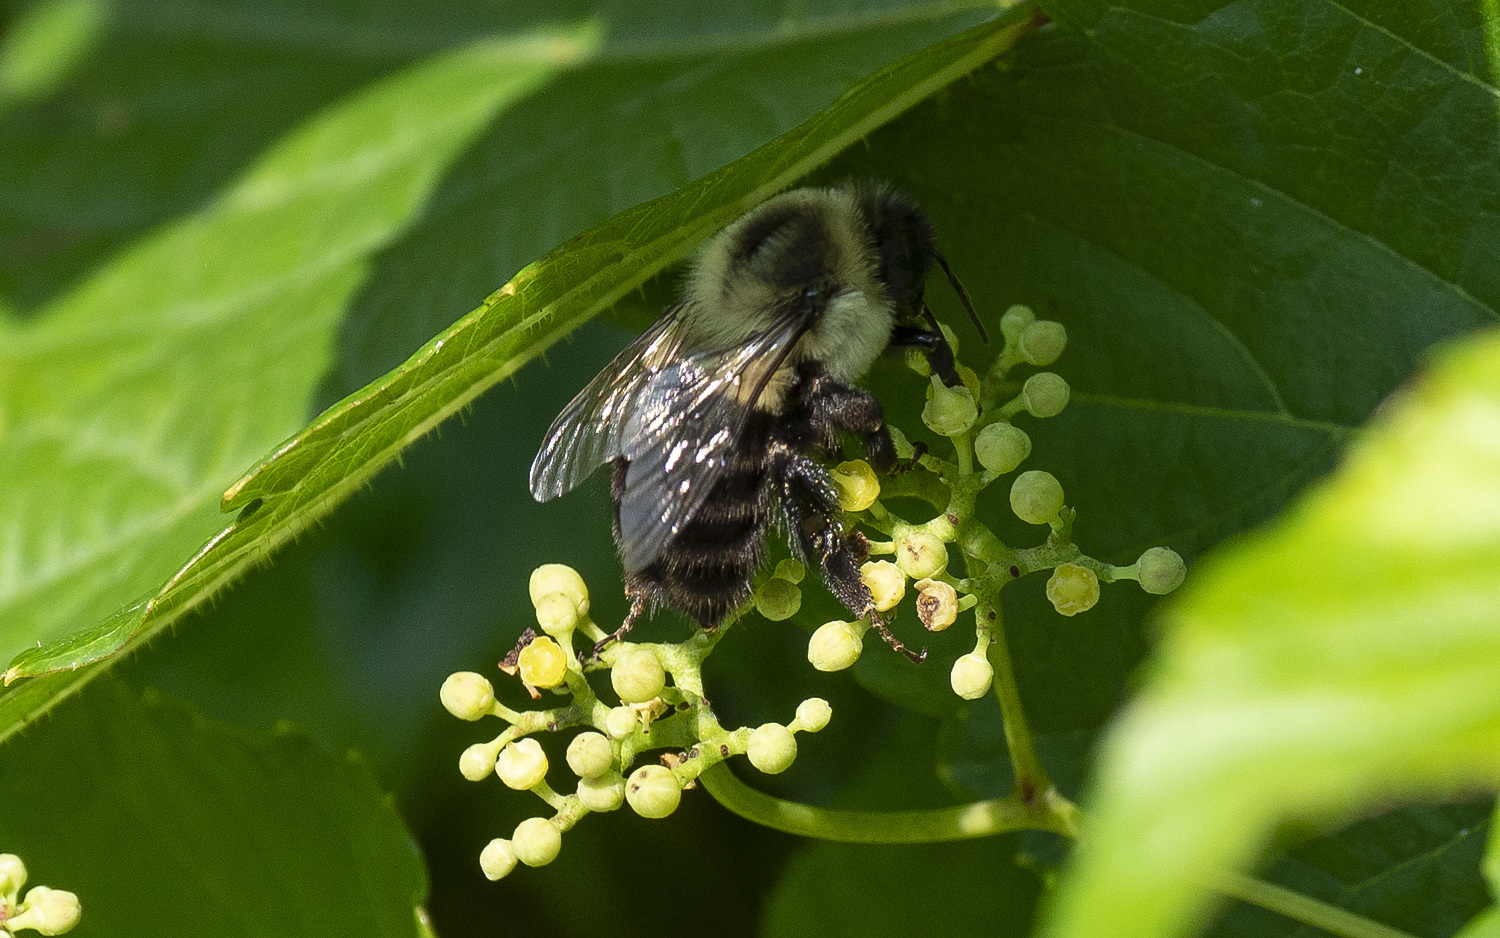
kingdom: Animalia
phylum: Arthropoda
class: Insecta
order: Hymenoptera
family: Apidae
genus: Bombus
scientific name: Bombus impatiens
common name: Common eastern bumble bee
